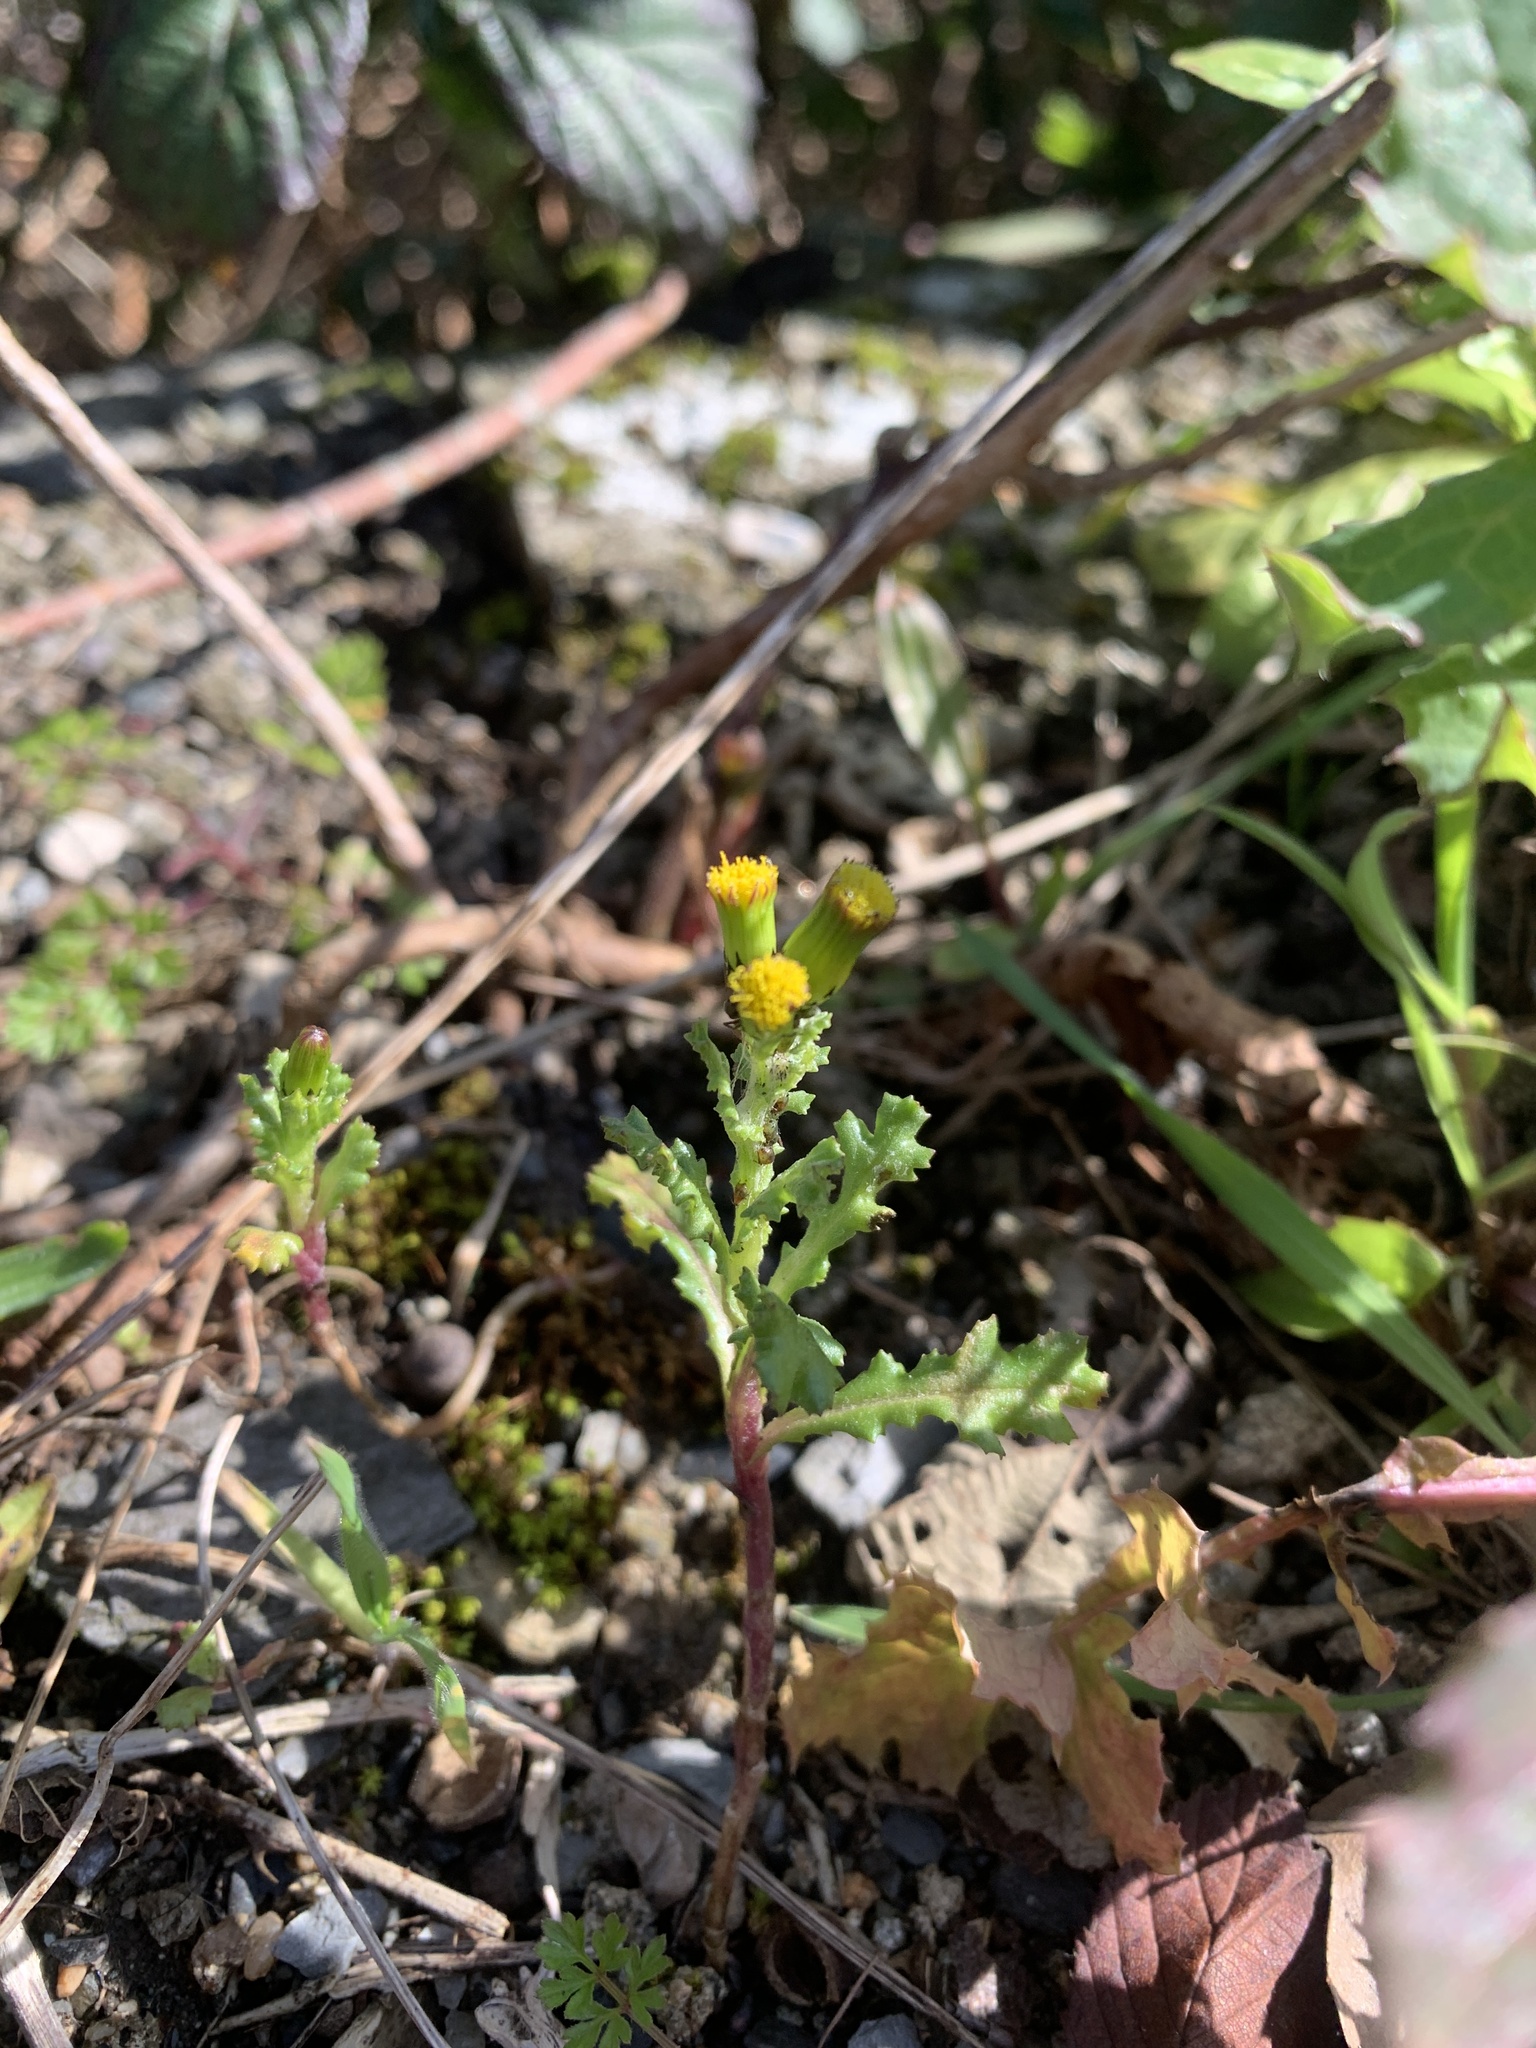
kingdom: Plantae
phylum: Tracheophyta
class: Magnoliopsida
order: Asterales
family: Asteraceae
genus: Senecio
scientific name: Senecio vulgaris
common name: Old-man-in-the-spring
